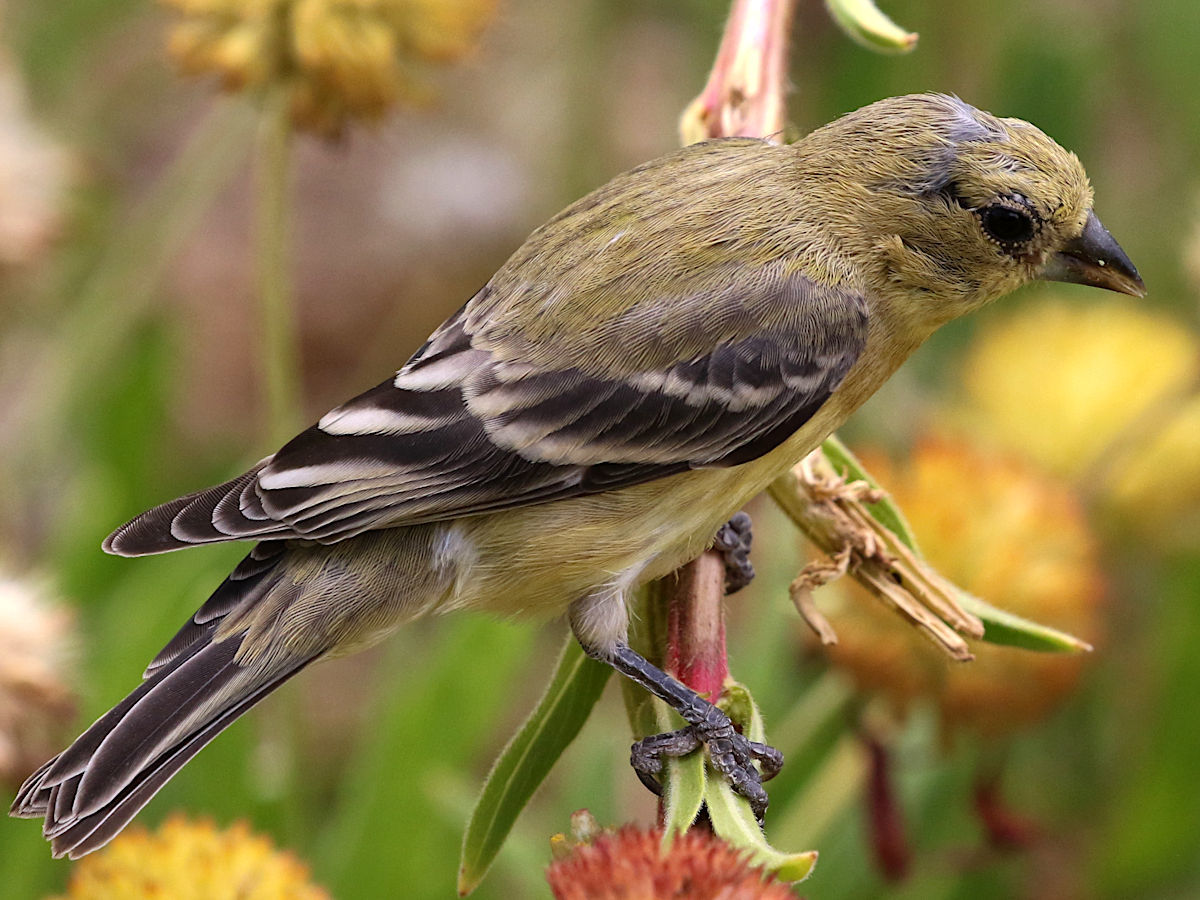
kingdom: Animalia
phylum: Chordata
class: Aves
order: Passeriformes
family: Fringillidae
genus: Spinus
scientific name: Spinus psaltria
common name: Lesser goldfinch
